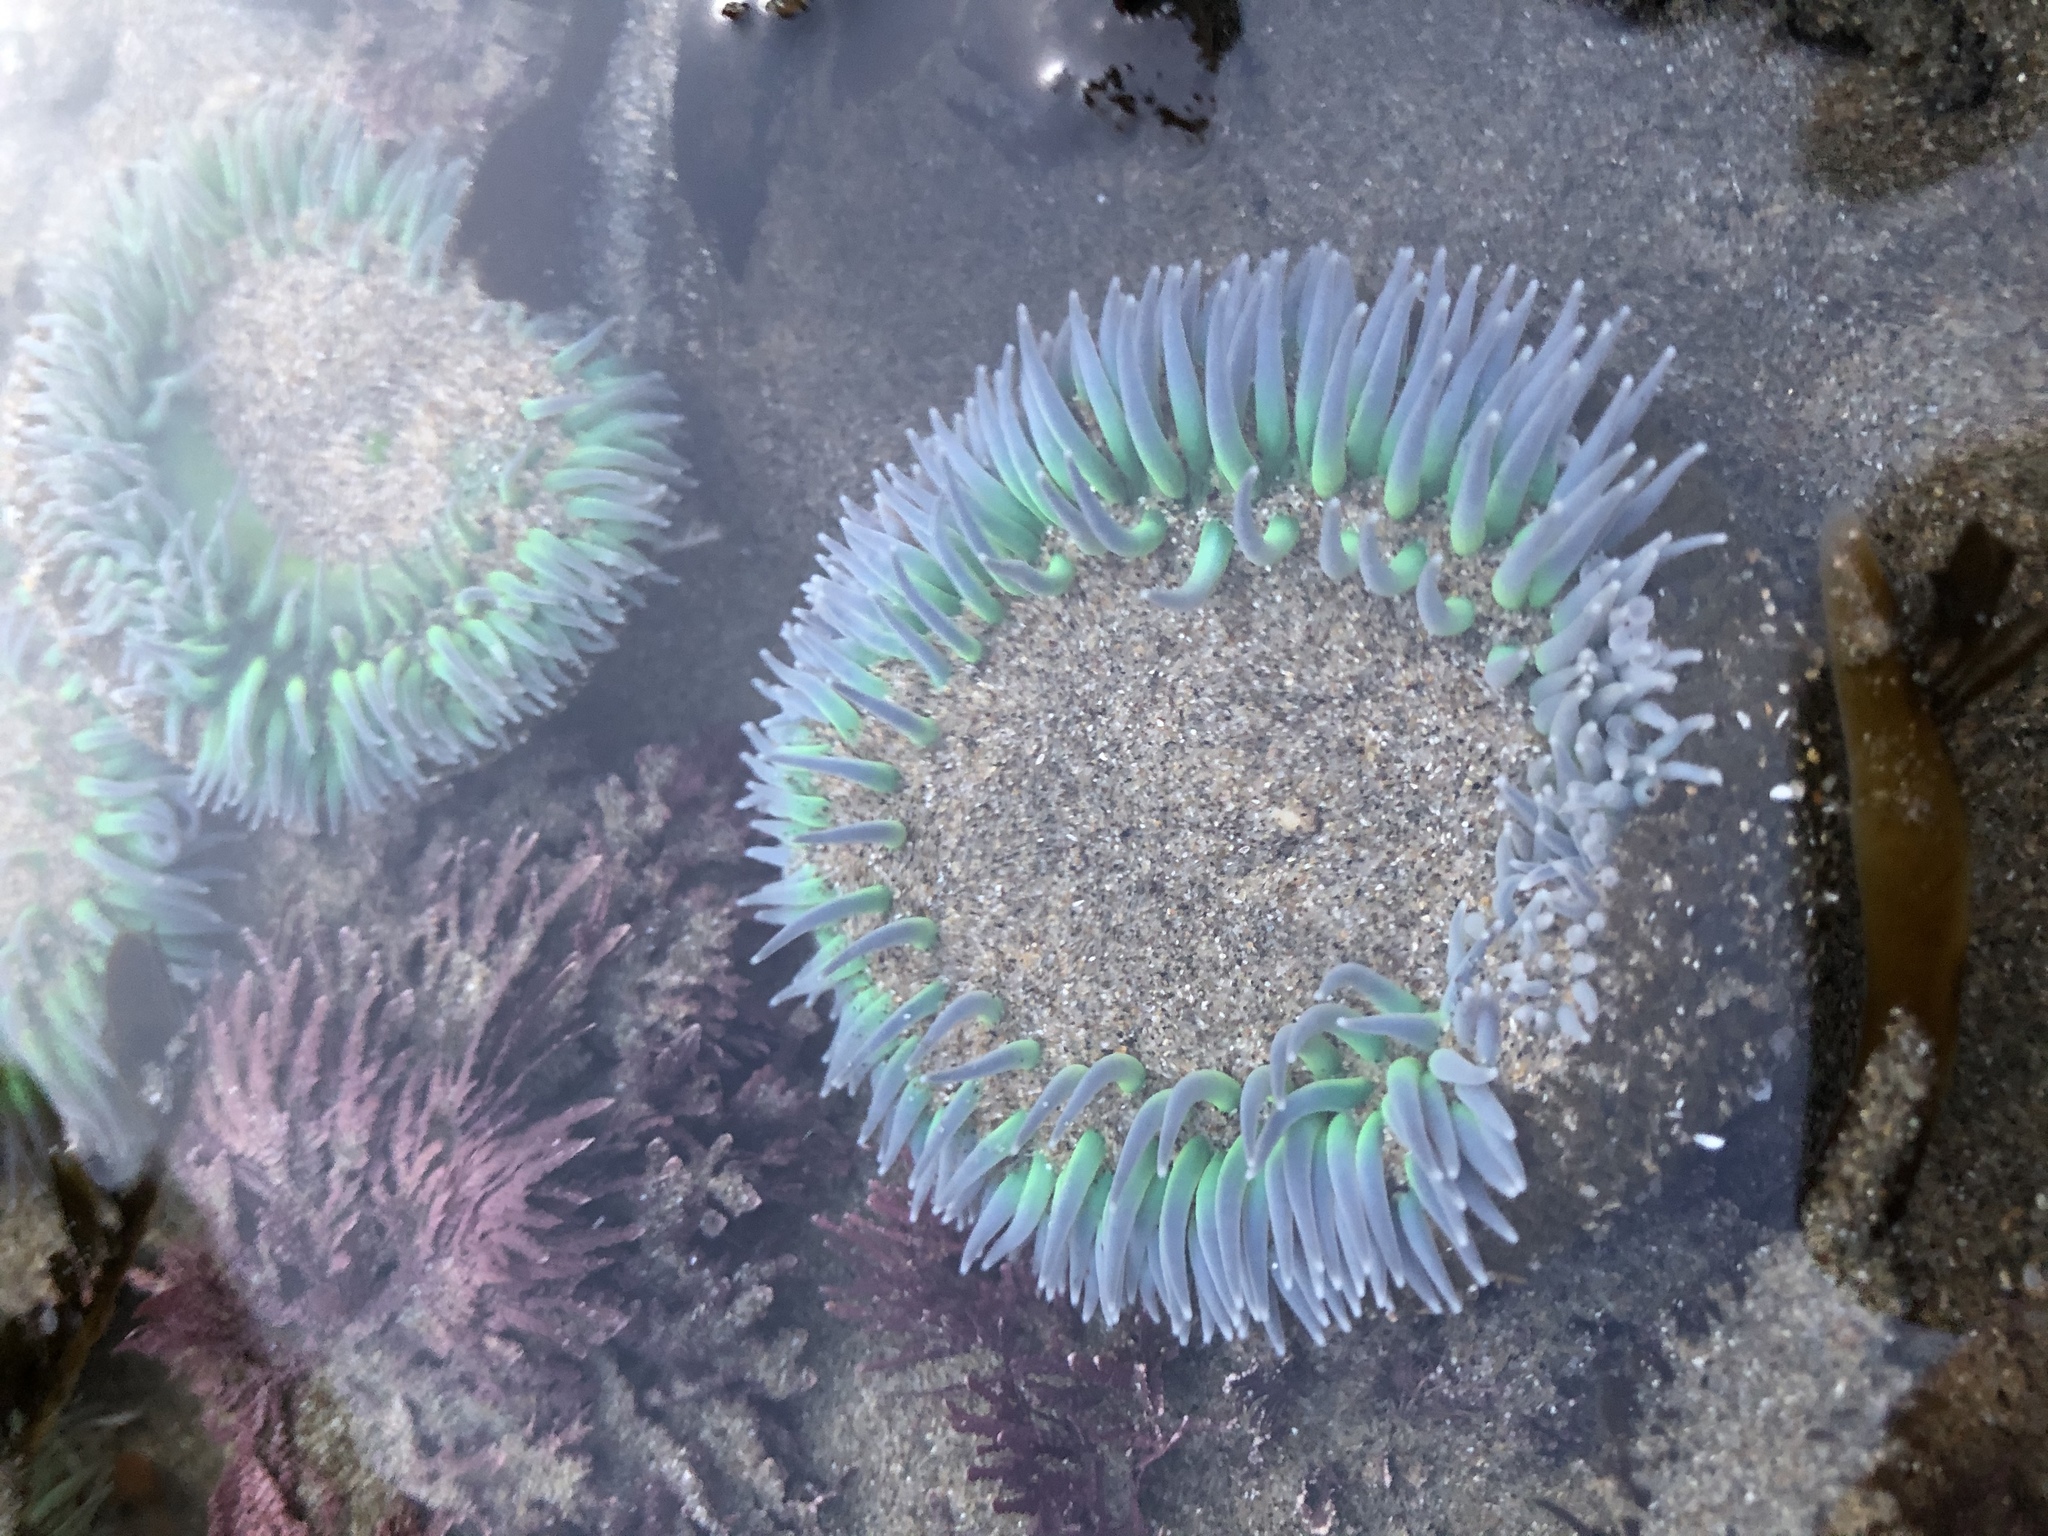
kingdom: Animalia
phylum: Cnidaria
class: Anthozoa
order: Actiniaria
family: Actiniidae
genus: Anthopleura
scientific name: Anthopleura xanthogrammica
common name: Giant green anemone
